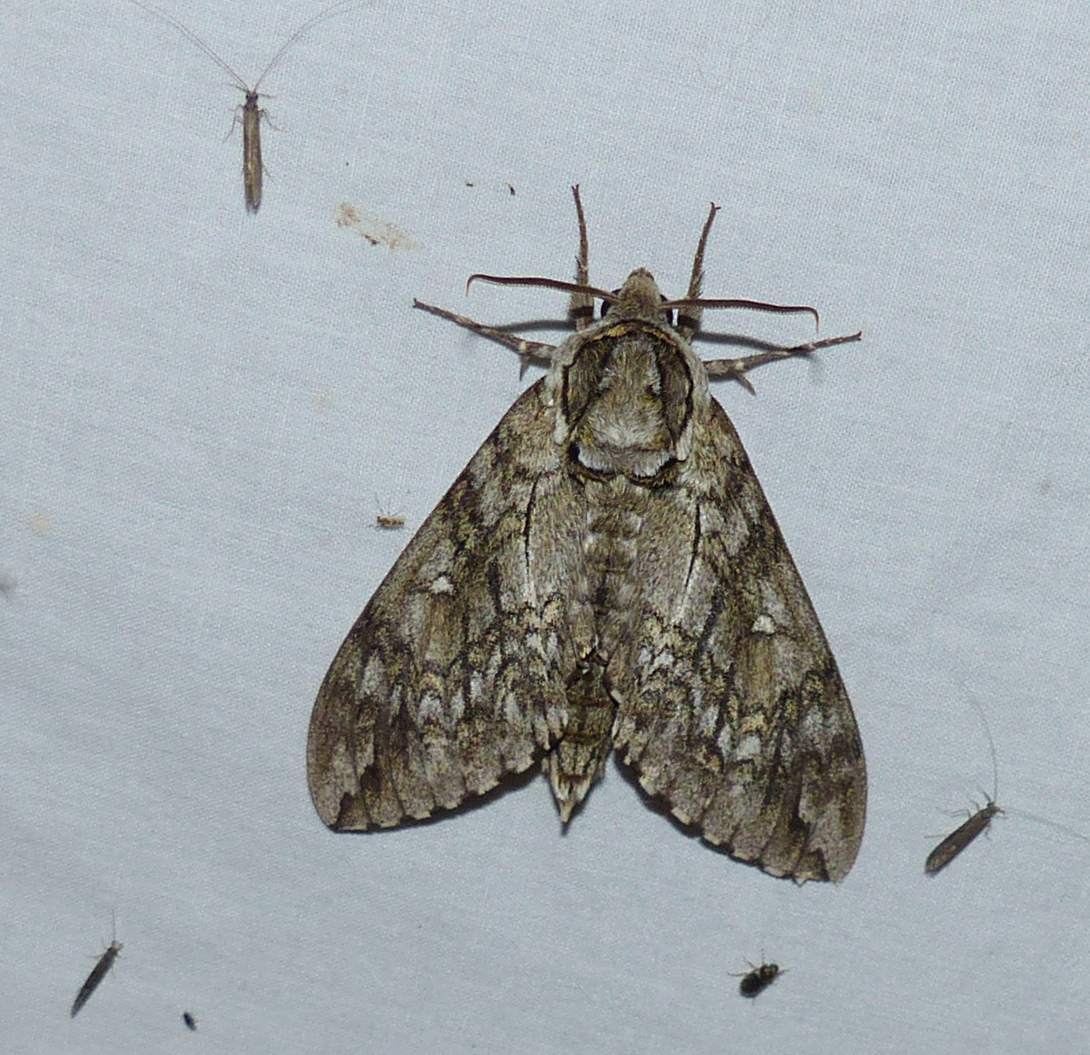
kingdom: Animalia
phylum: Arthropoda
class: Insecta
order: Lepidoptera
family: Sphingidae
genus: Ceratomia
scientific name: Ceratomia undulosa
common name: Waved sphinx
